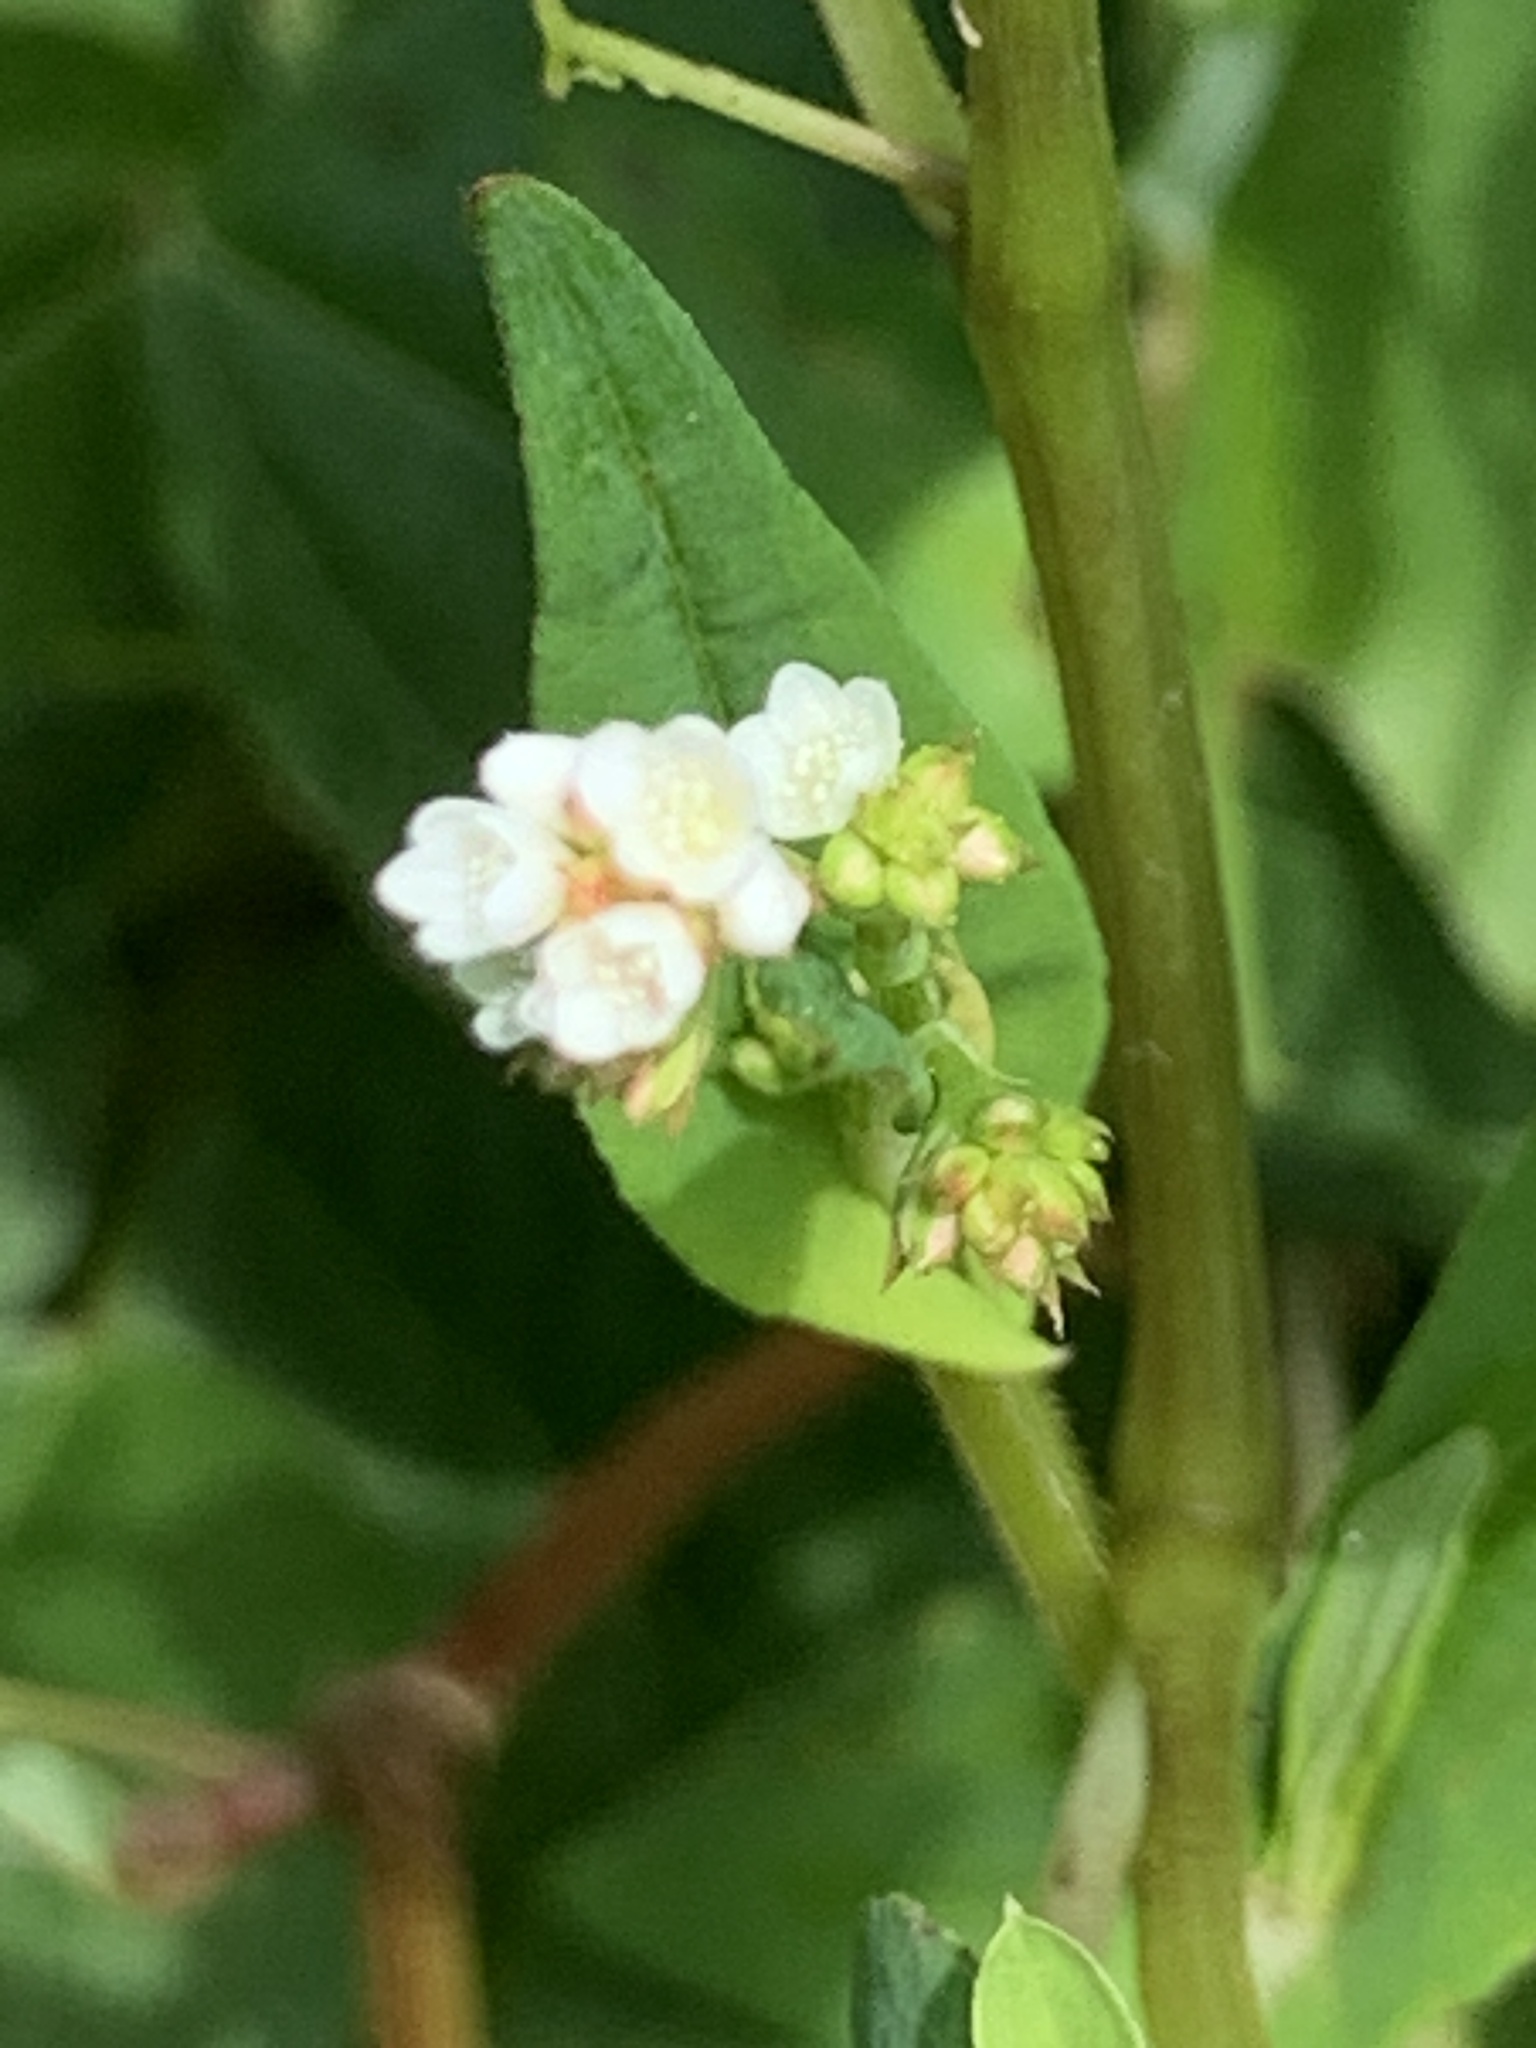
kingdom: Plantae
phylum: Tracheophyta
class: Magnoliopsida
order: Caryophyllales
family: Polygonaceae
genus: Persicaria
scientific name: Persicaria sagittata
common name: American tearthumb
